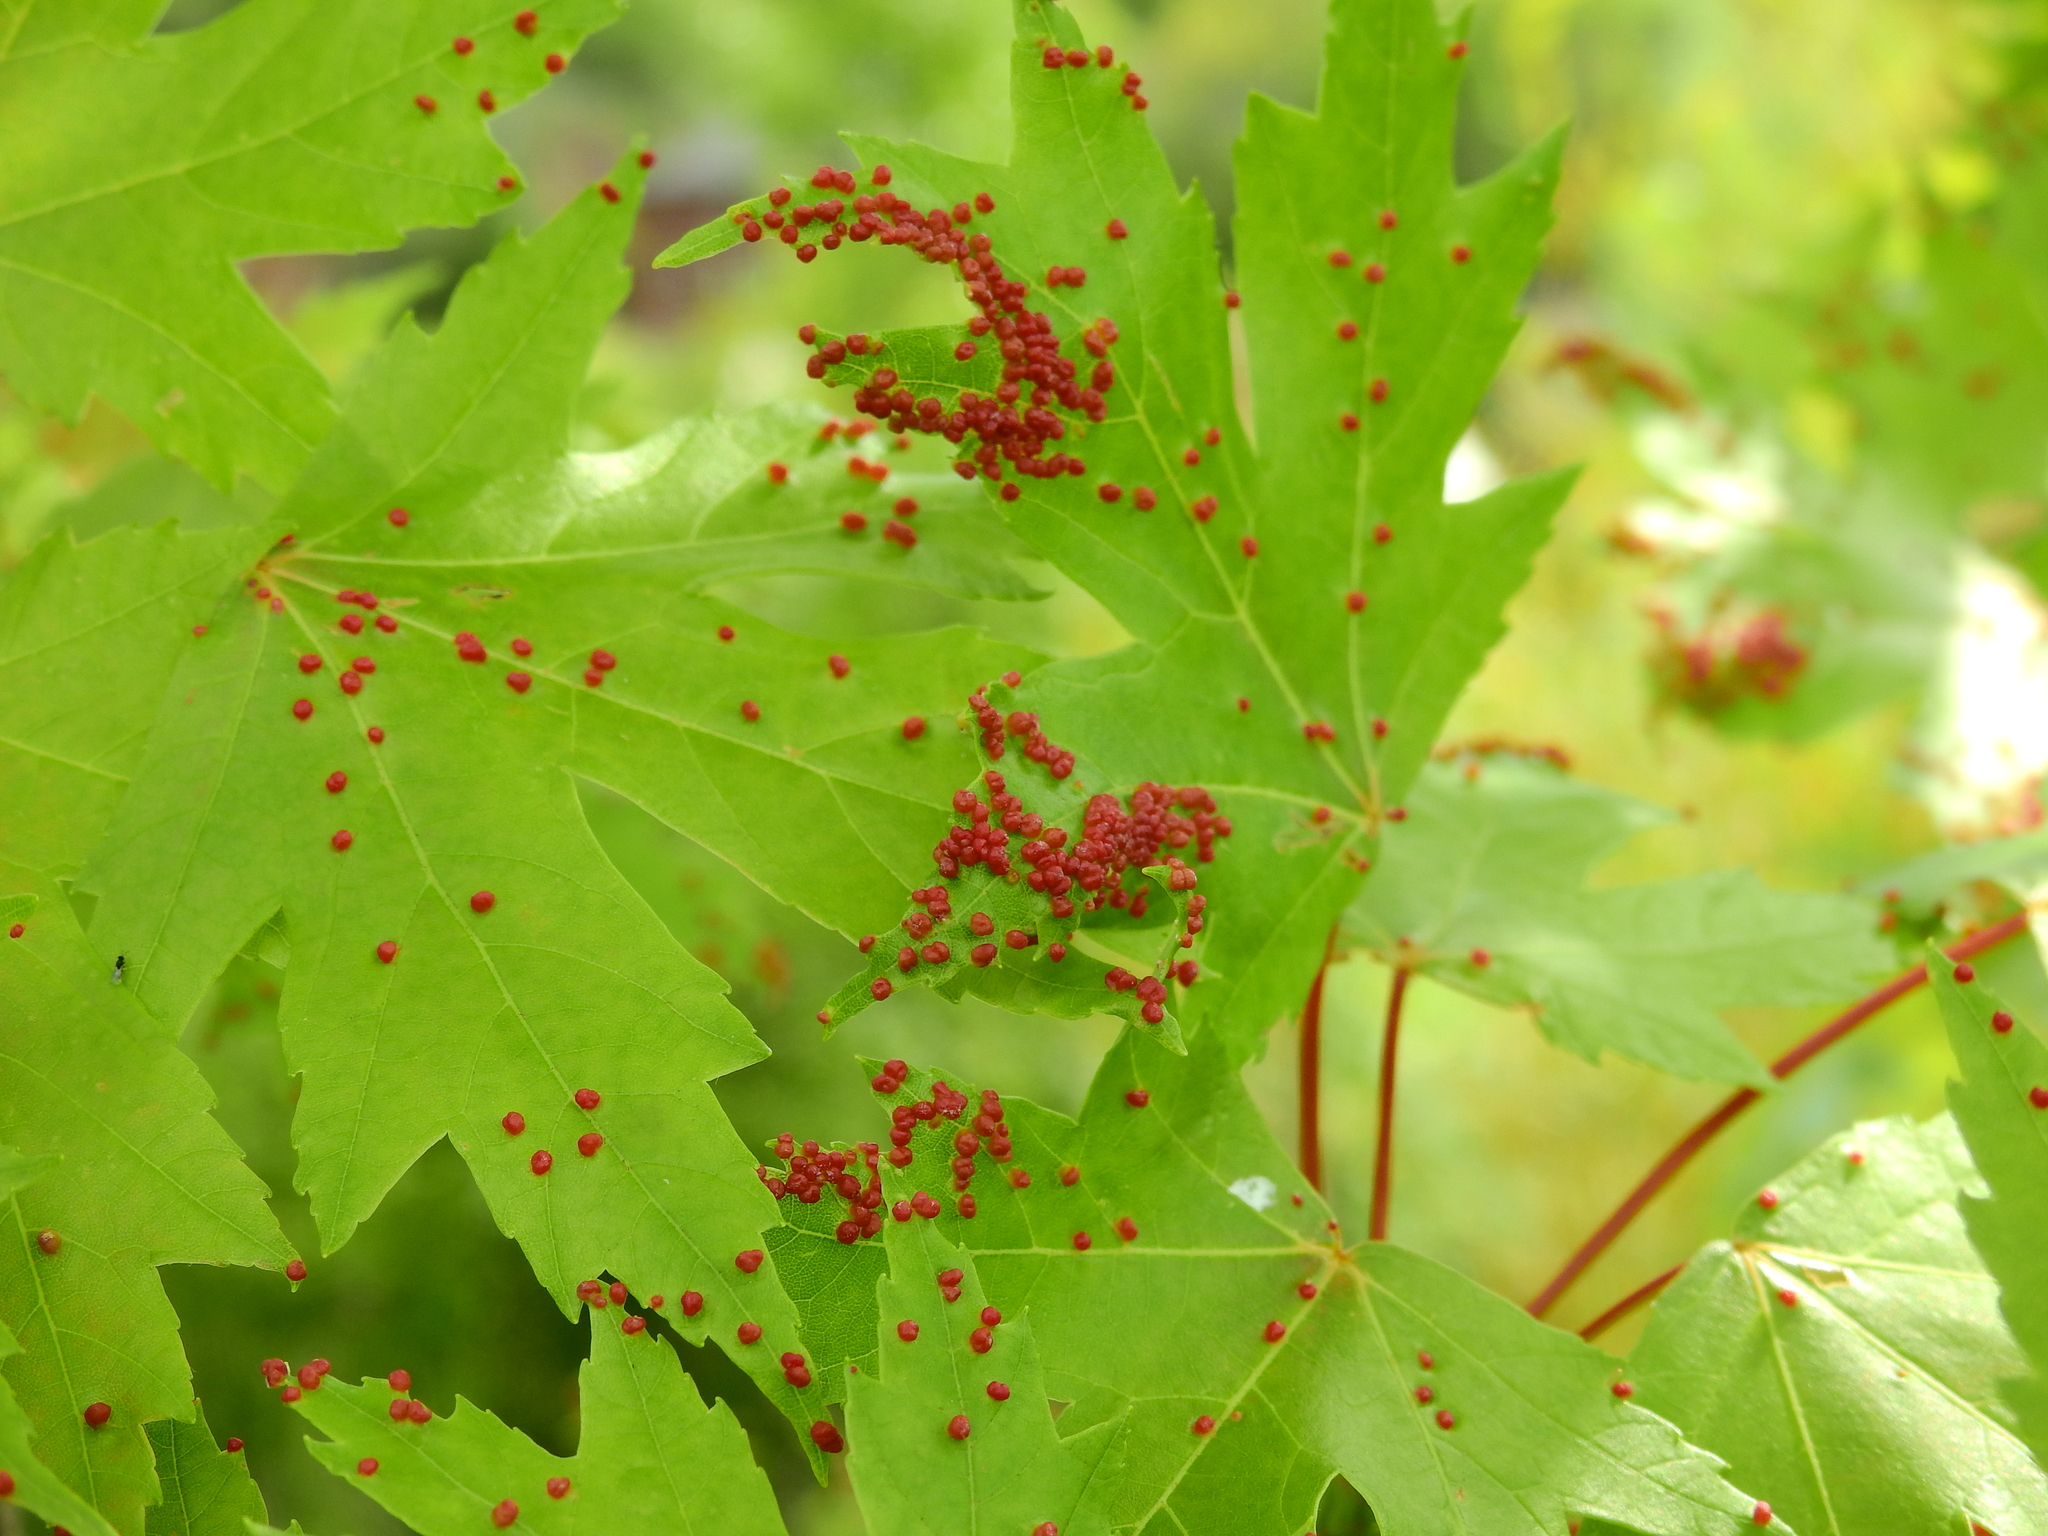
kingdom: Animalia
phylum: Arthropoda
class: Arachnida
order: Trombidiformes
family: Eriophyidae
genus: Vasates
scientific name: Vasates quadripedes
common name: Maple bladder gall mite
